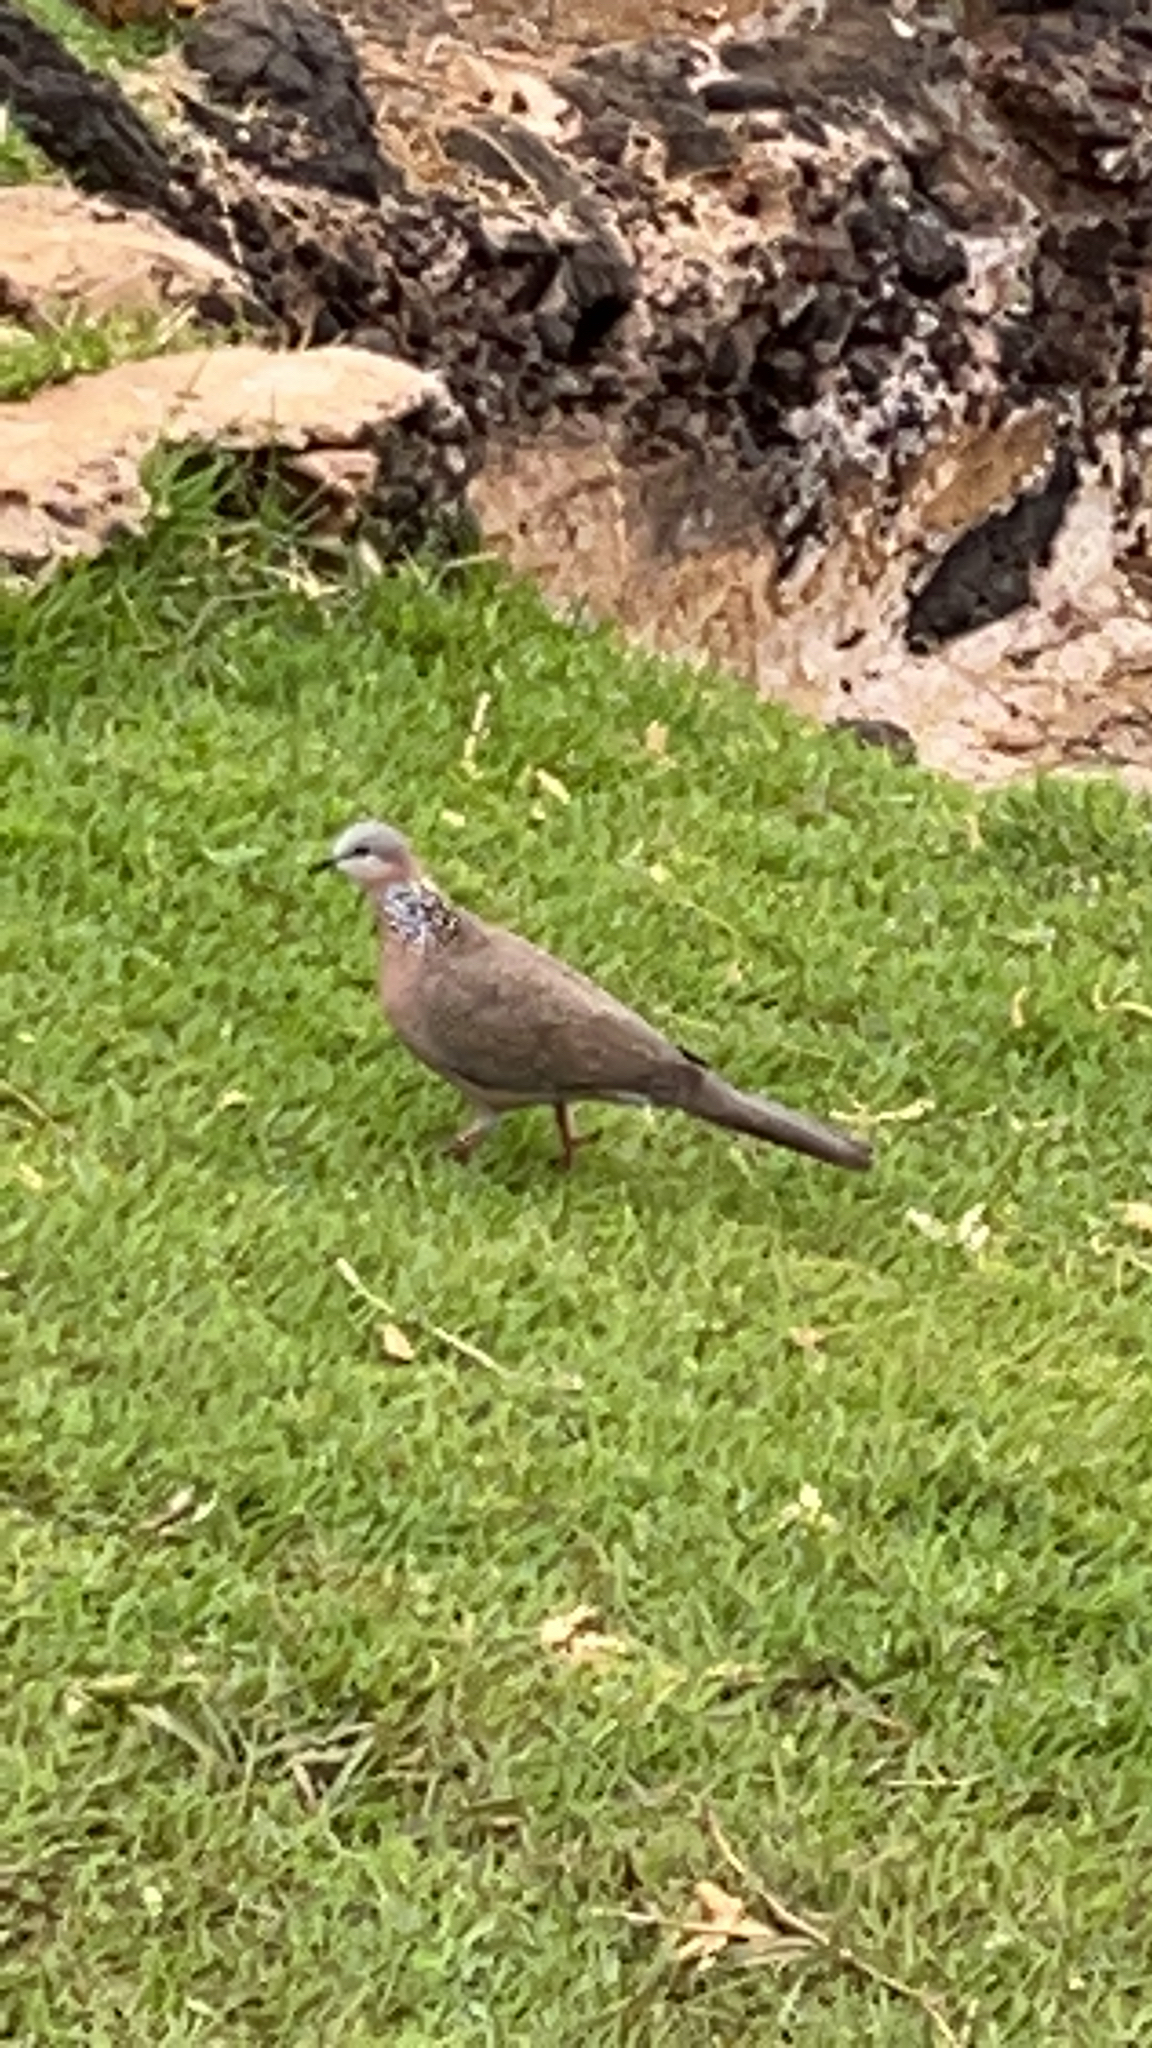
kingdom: Animalia
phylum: Chordata
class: Aves
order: Columbiformes
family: Columbidae
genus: Spilopelia
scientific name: Spilopelia chinensis
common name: Spotted dove
